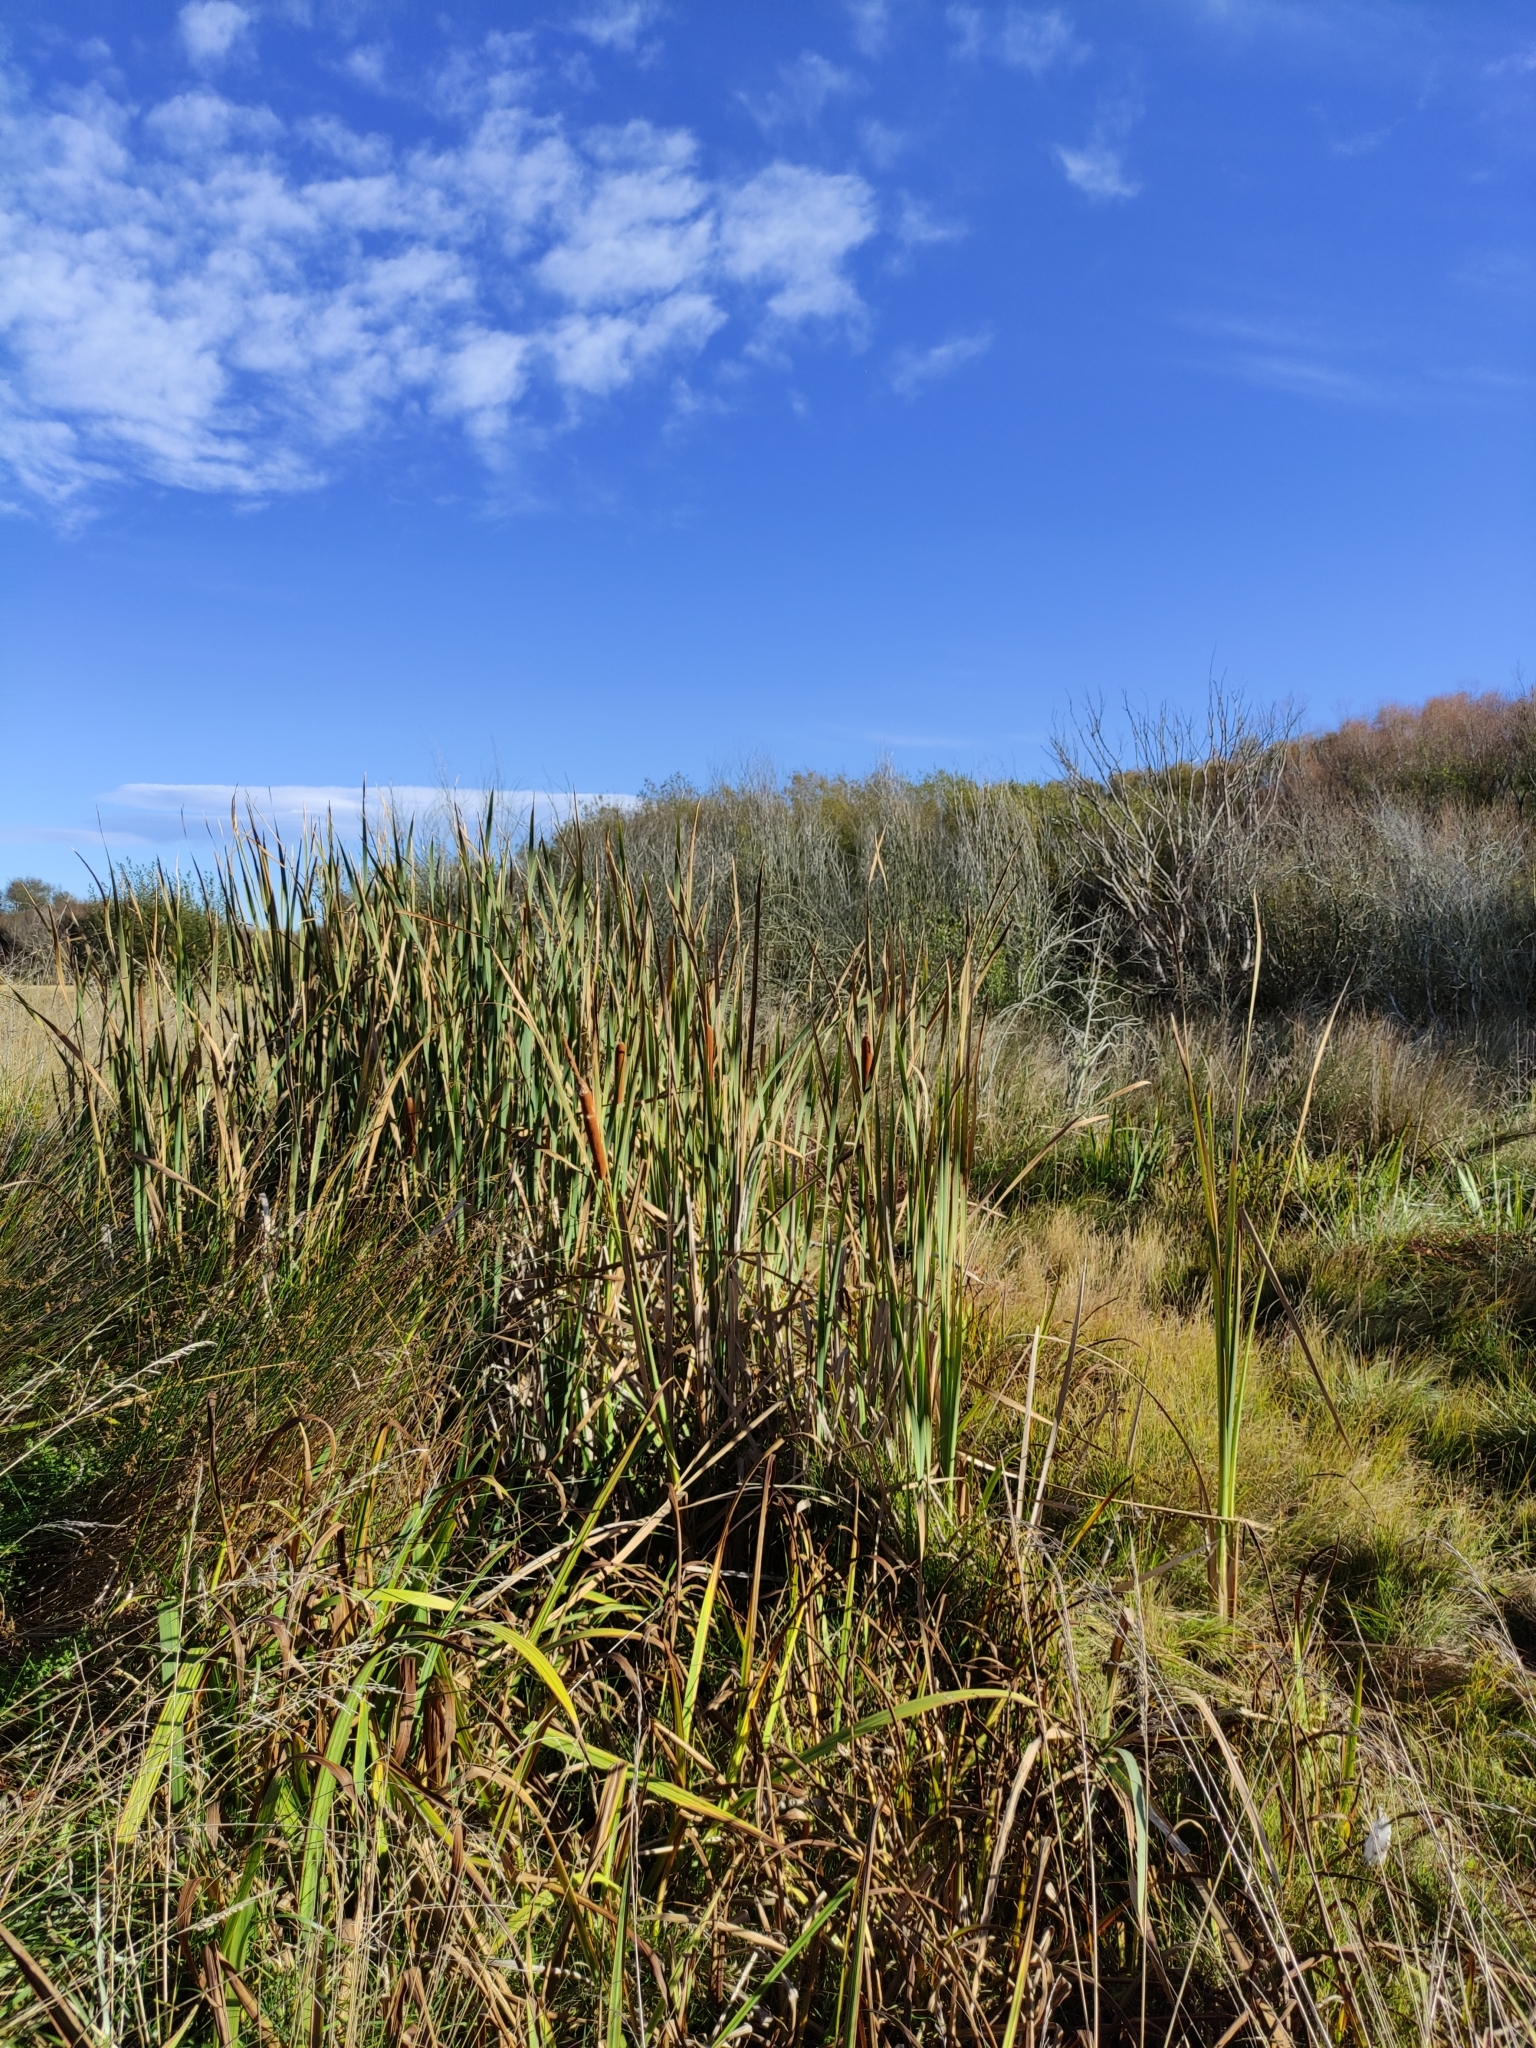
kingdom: Plantae
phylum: Tracheophyta
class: Liliopsida
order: Poales
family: Typhaceae
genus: Typha
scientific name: Typha orientalis
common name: Bullrush
